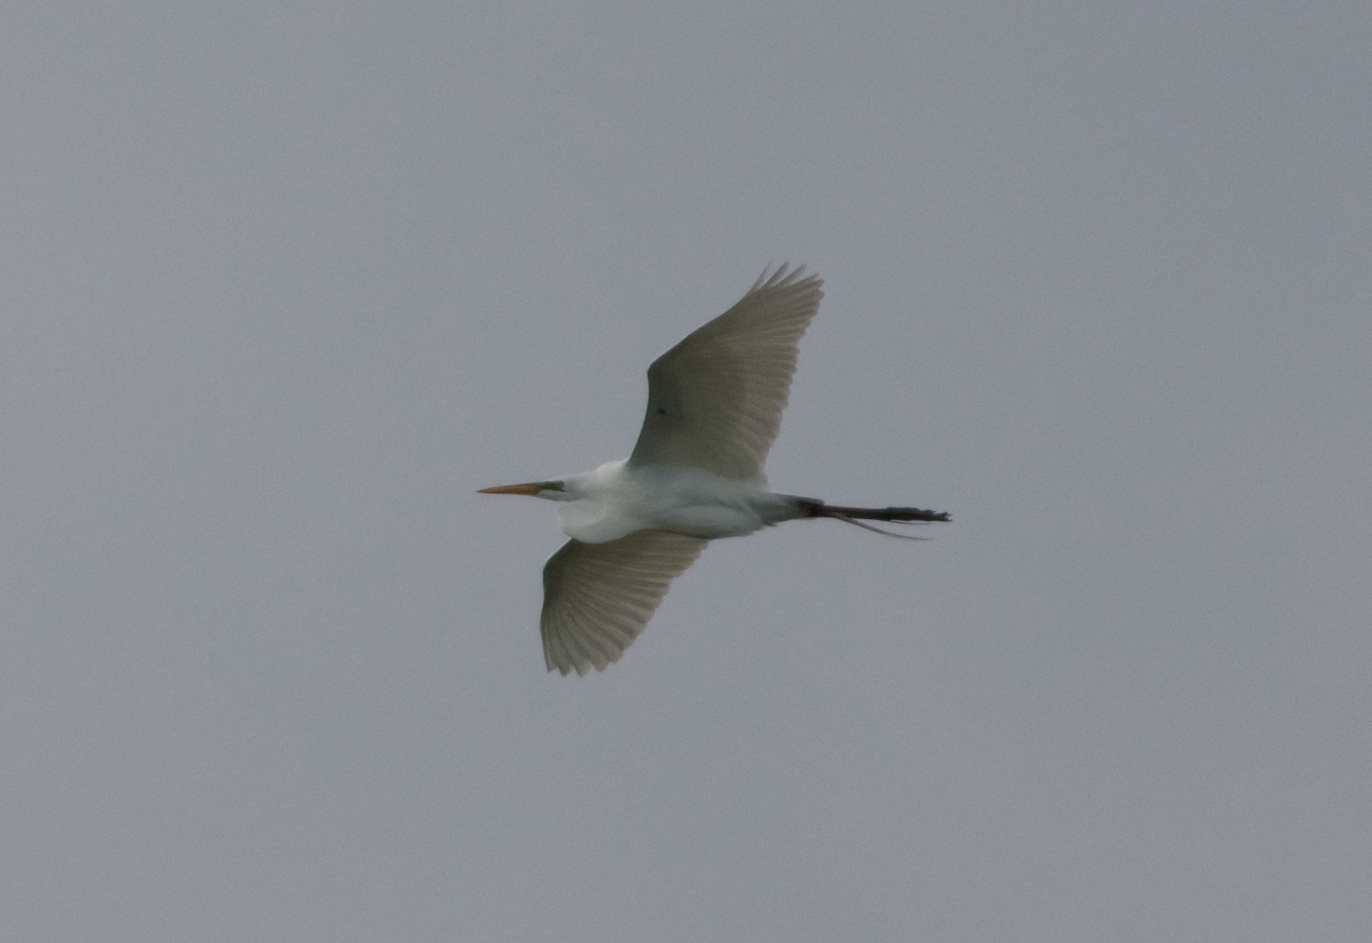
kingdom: Animalia
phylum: Chordata
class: Aves
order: Pelecaniformes
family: Ardeidae
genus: Ardea
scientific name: Ardea alba
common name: Great egret
